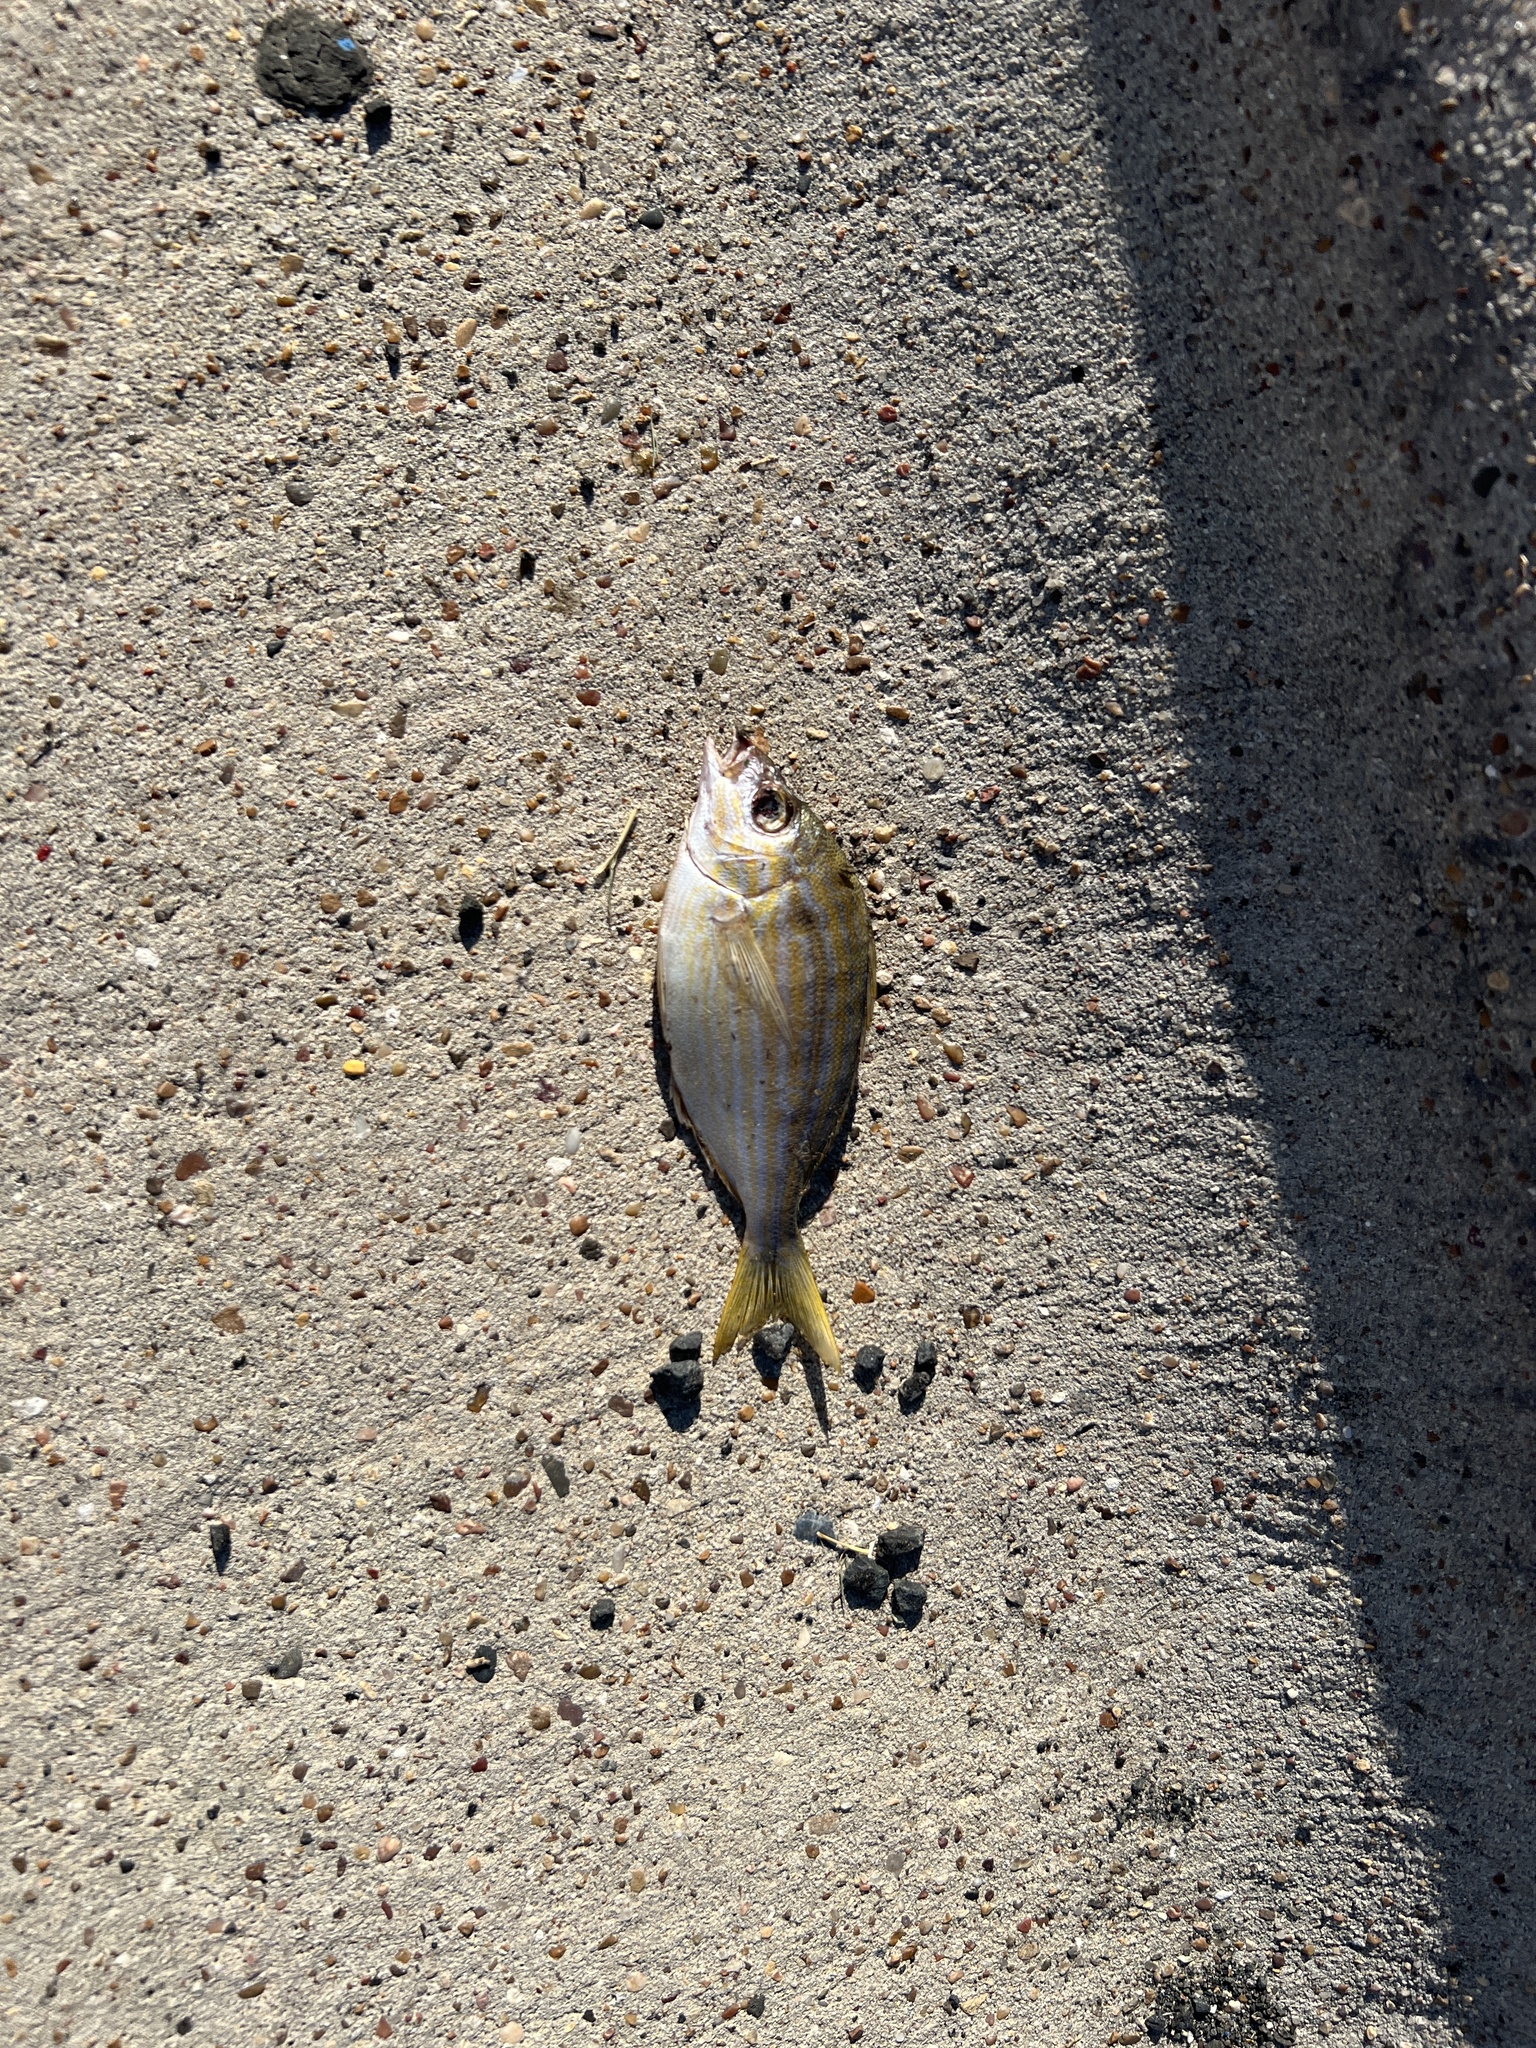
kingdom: Animalia
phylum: Chordata
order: Perciformes
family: Sparidae
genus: Lagodon
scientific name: Lagodon rhomboides
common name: Pinfish
